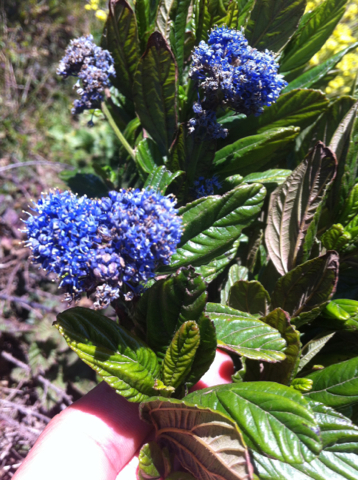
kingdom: Plantae
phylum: Tracheophyta
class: Magnoliopsida
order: Rosales
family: Rhamnaceae
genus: Ceanothus
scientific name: Ceanothus thyrsiflorus
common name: California-lilac
